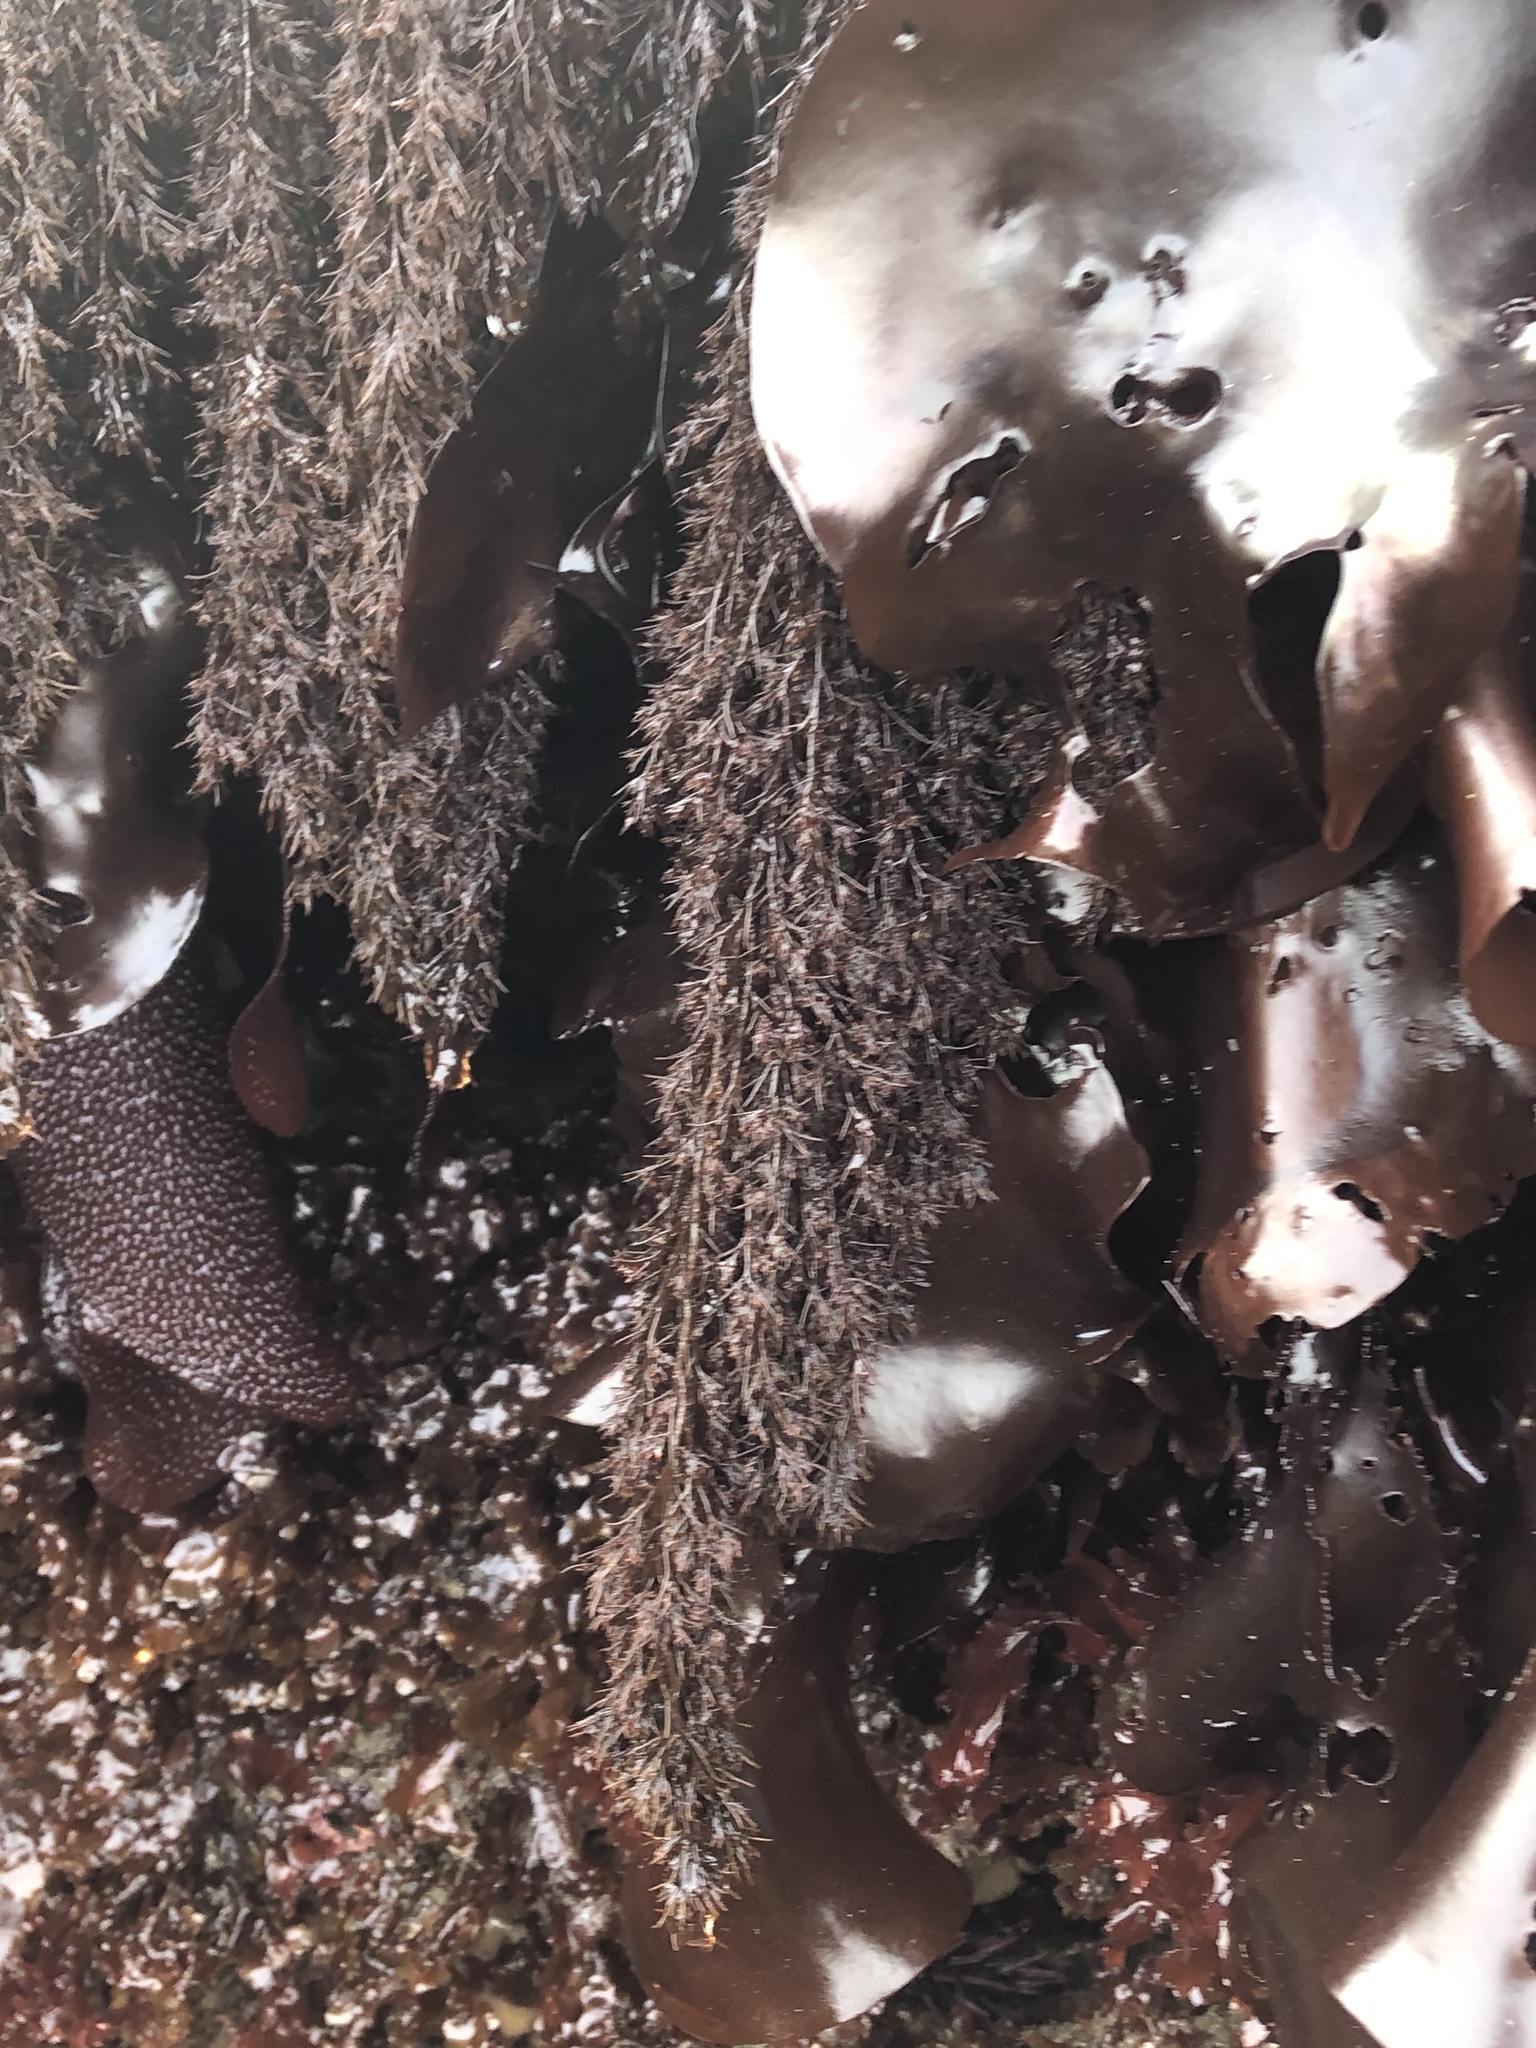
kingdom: Plantae
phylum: Rhodophyta
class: Florideophyceae
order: Ceramiales
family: Rhodomelaceae
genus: Odonthalia
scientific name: Odonthalia floccosa
